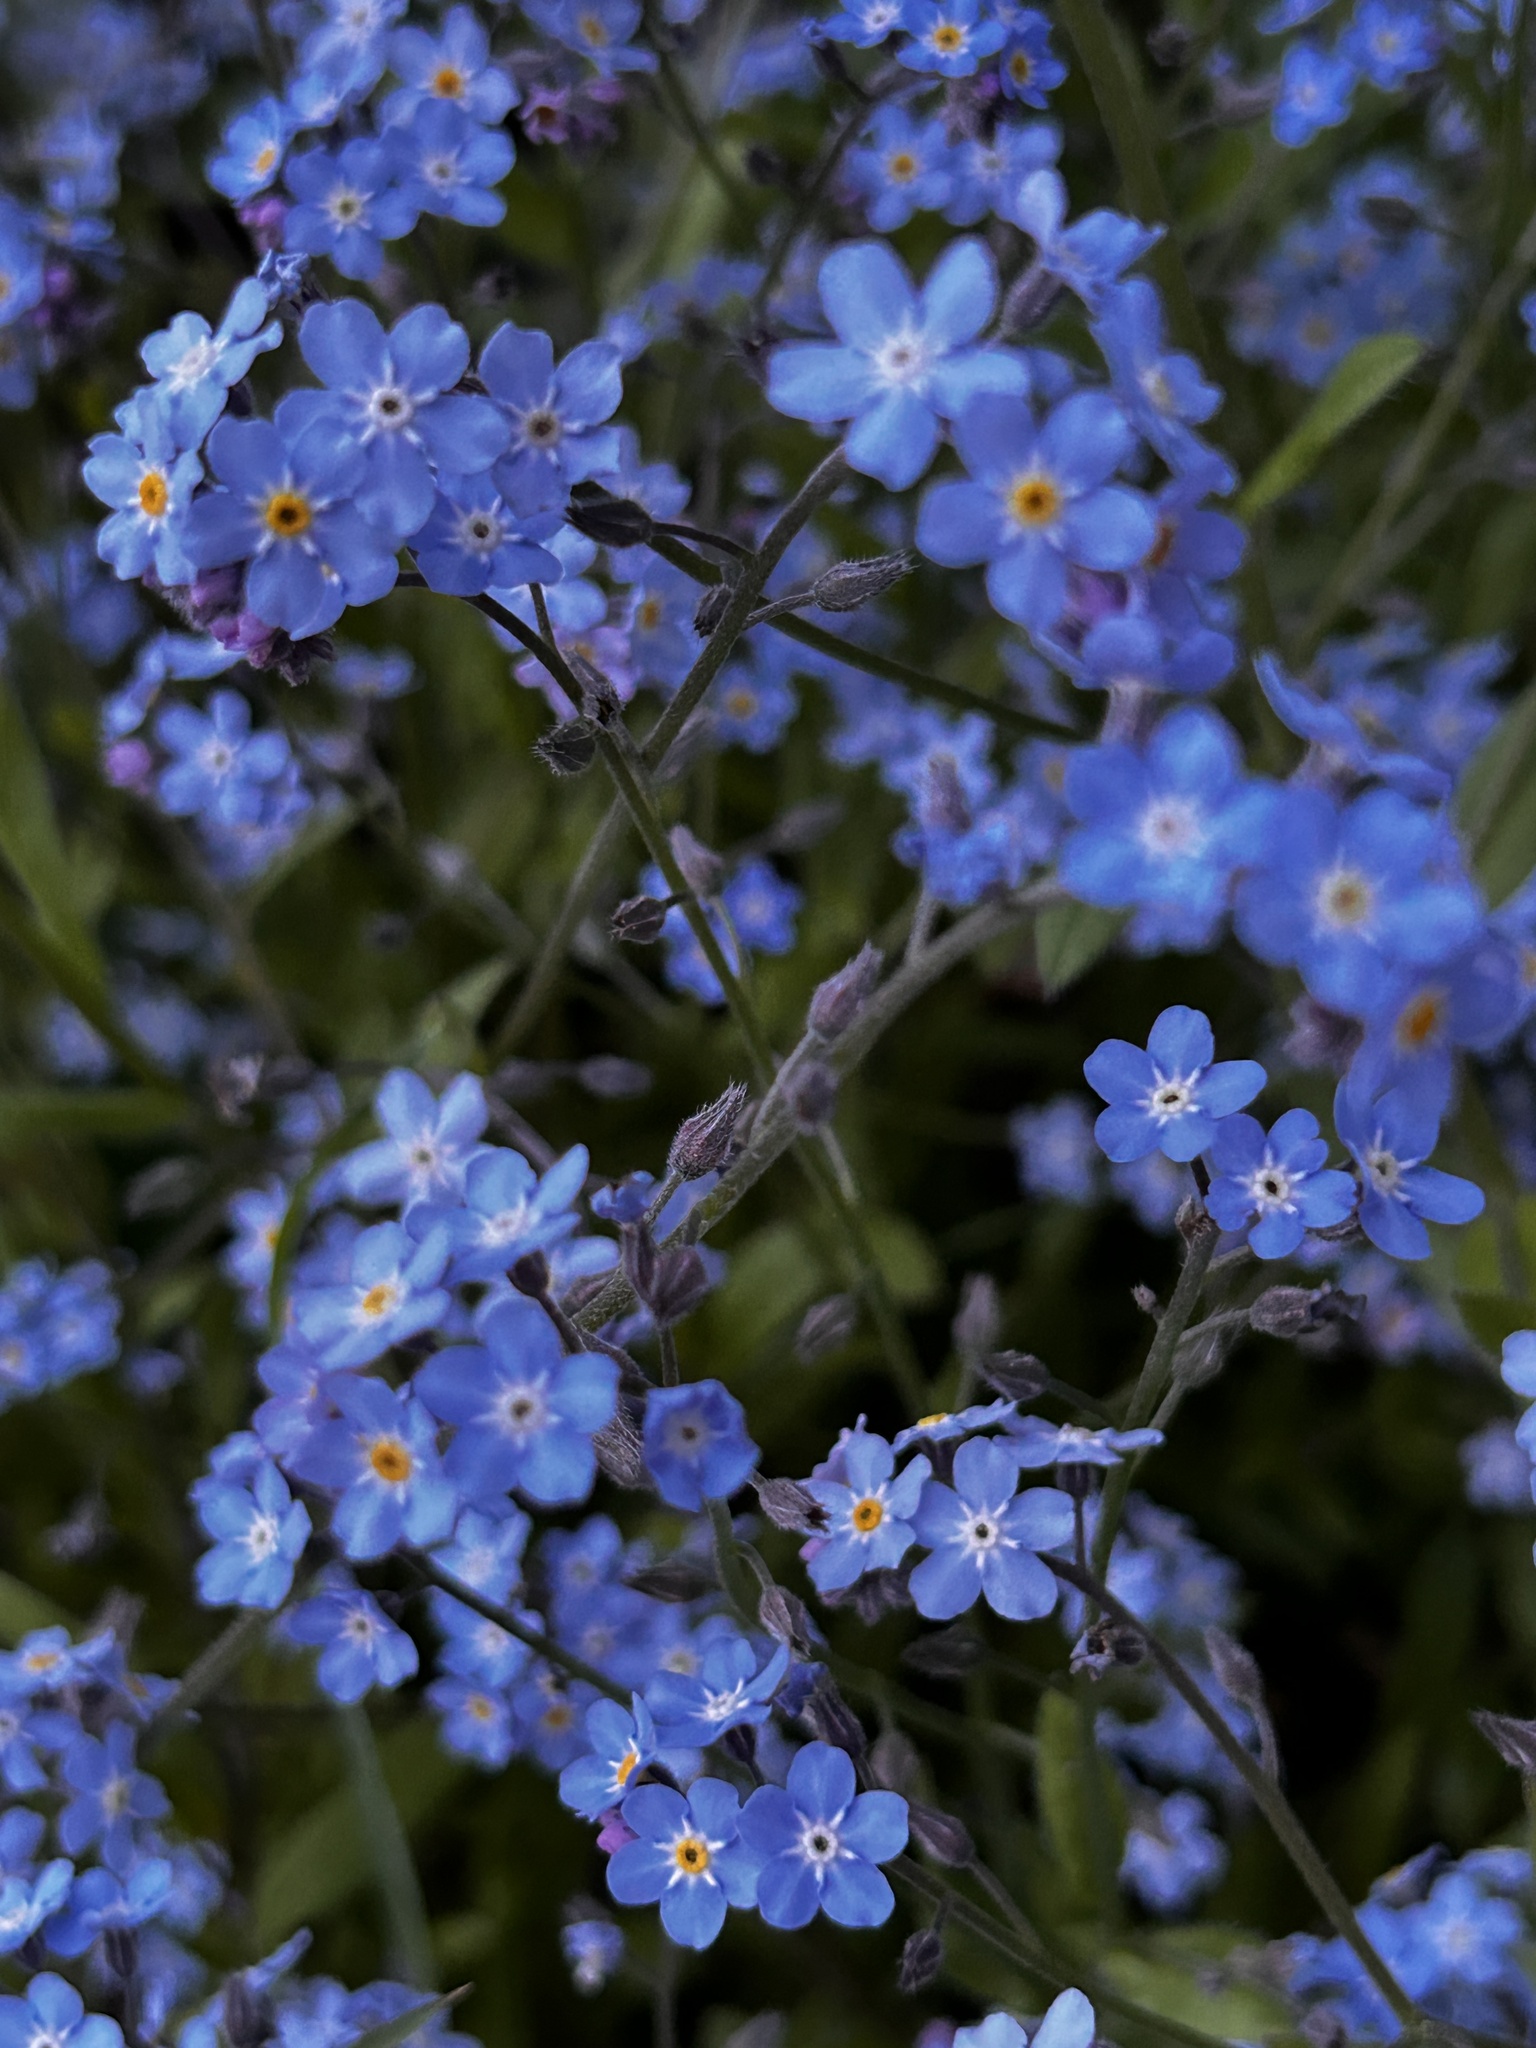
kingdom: Plantae
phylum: Tracheophyta
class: Magnoliopsida
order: Boraginales
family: Boraginaceae
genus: Myosotis
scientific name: Myosotis sylvatica
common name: Wood forget-me-not
